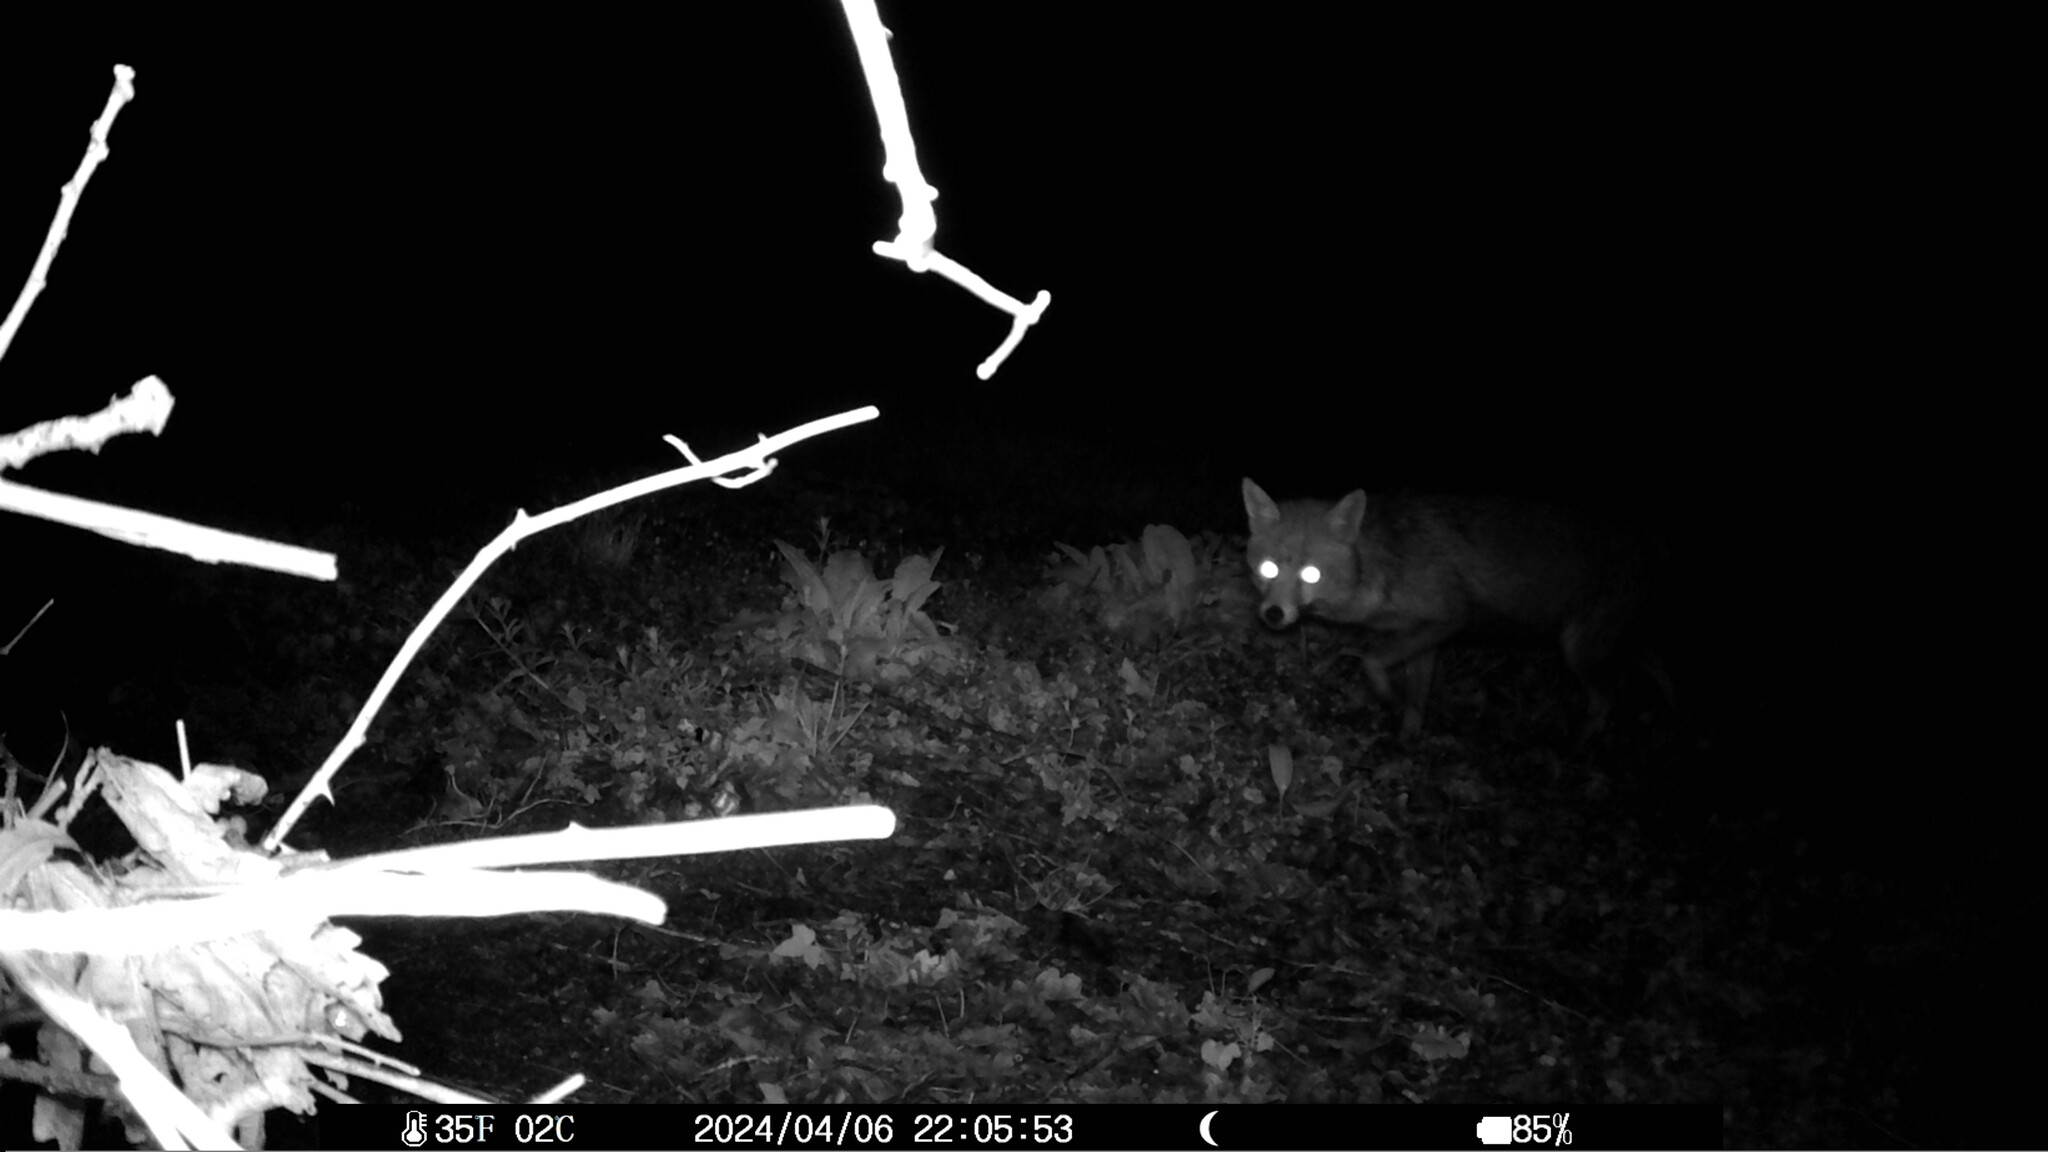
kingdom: Animalia
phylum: Chordata
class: Mammalia
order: Carnivora
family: Canidae
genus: Vulpes
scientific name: Vulpes vulpes
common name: Red fox
